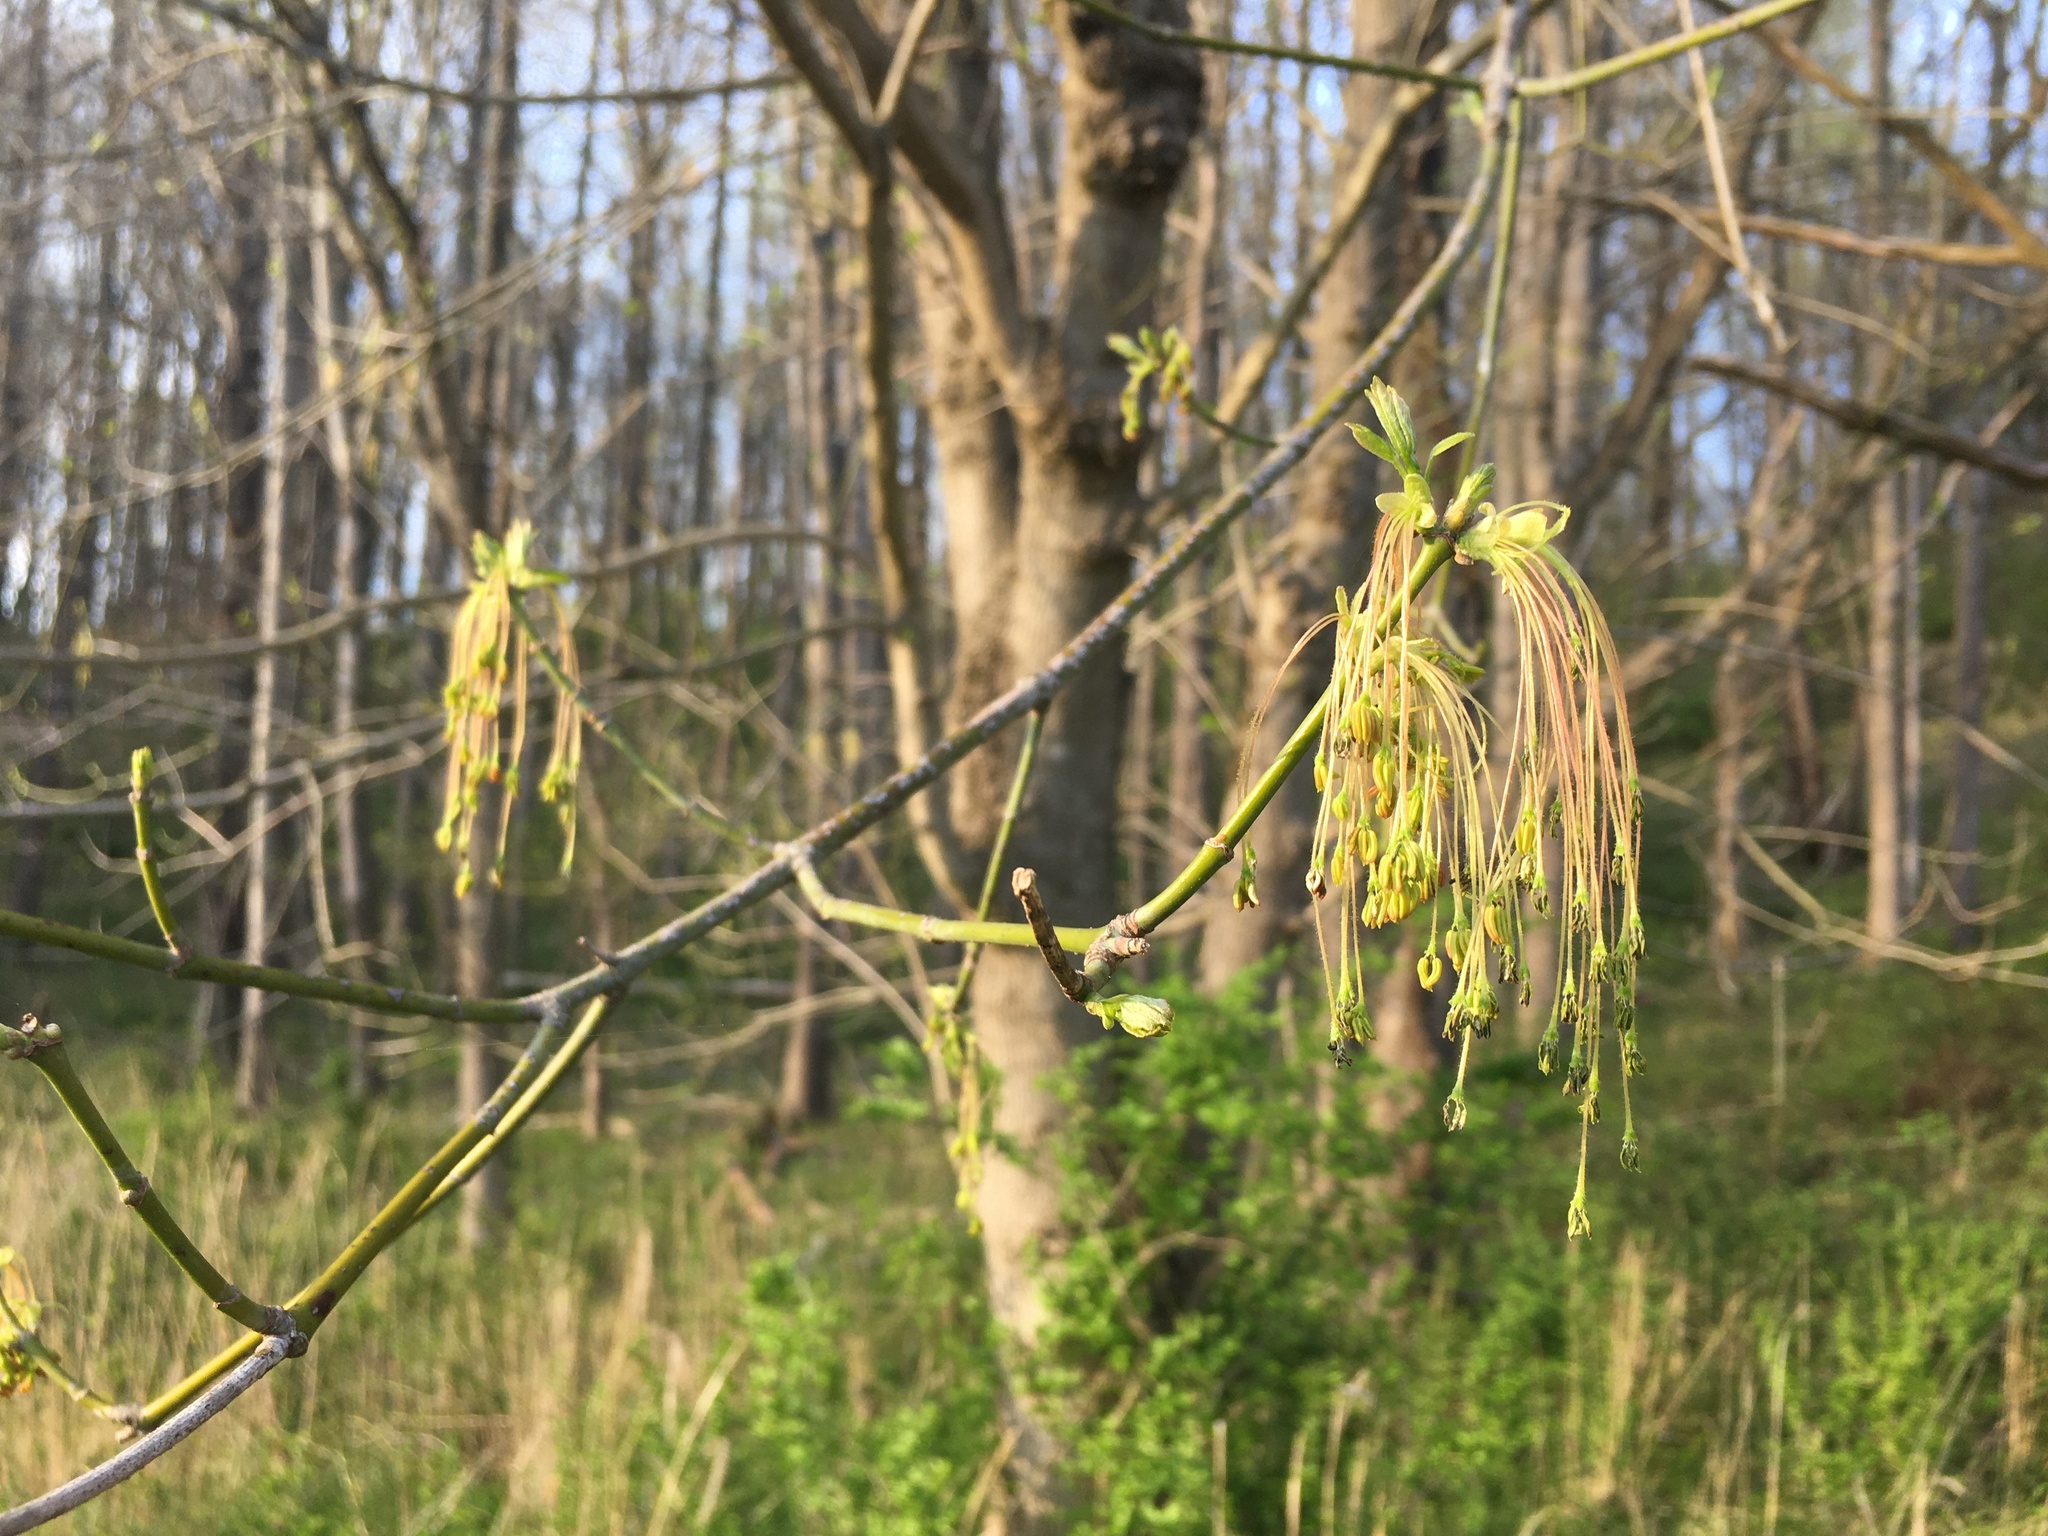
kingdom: Plantae
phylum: Tracheophyta
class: Magnoliopsida
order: Sapindales
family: Sapindaceae
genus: Acer
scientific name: Acer negundo
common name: Ashleaf maple
